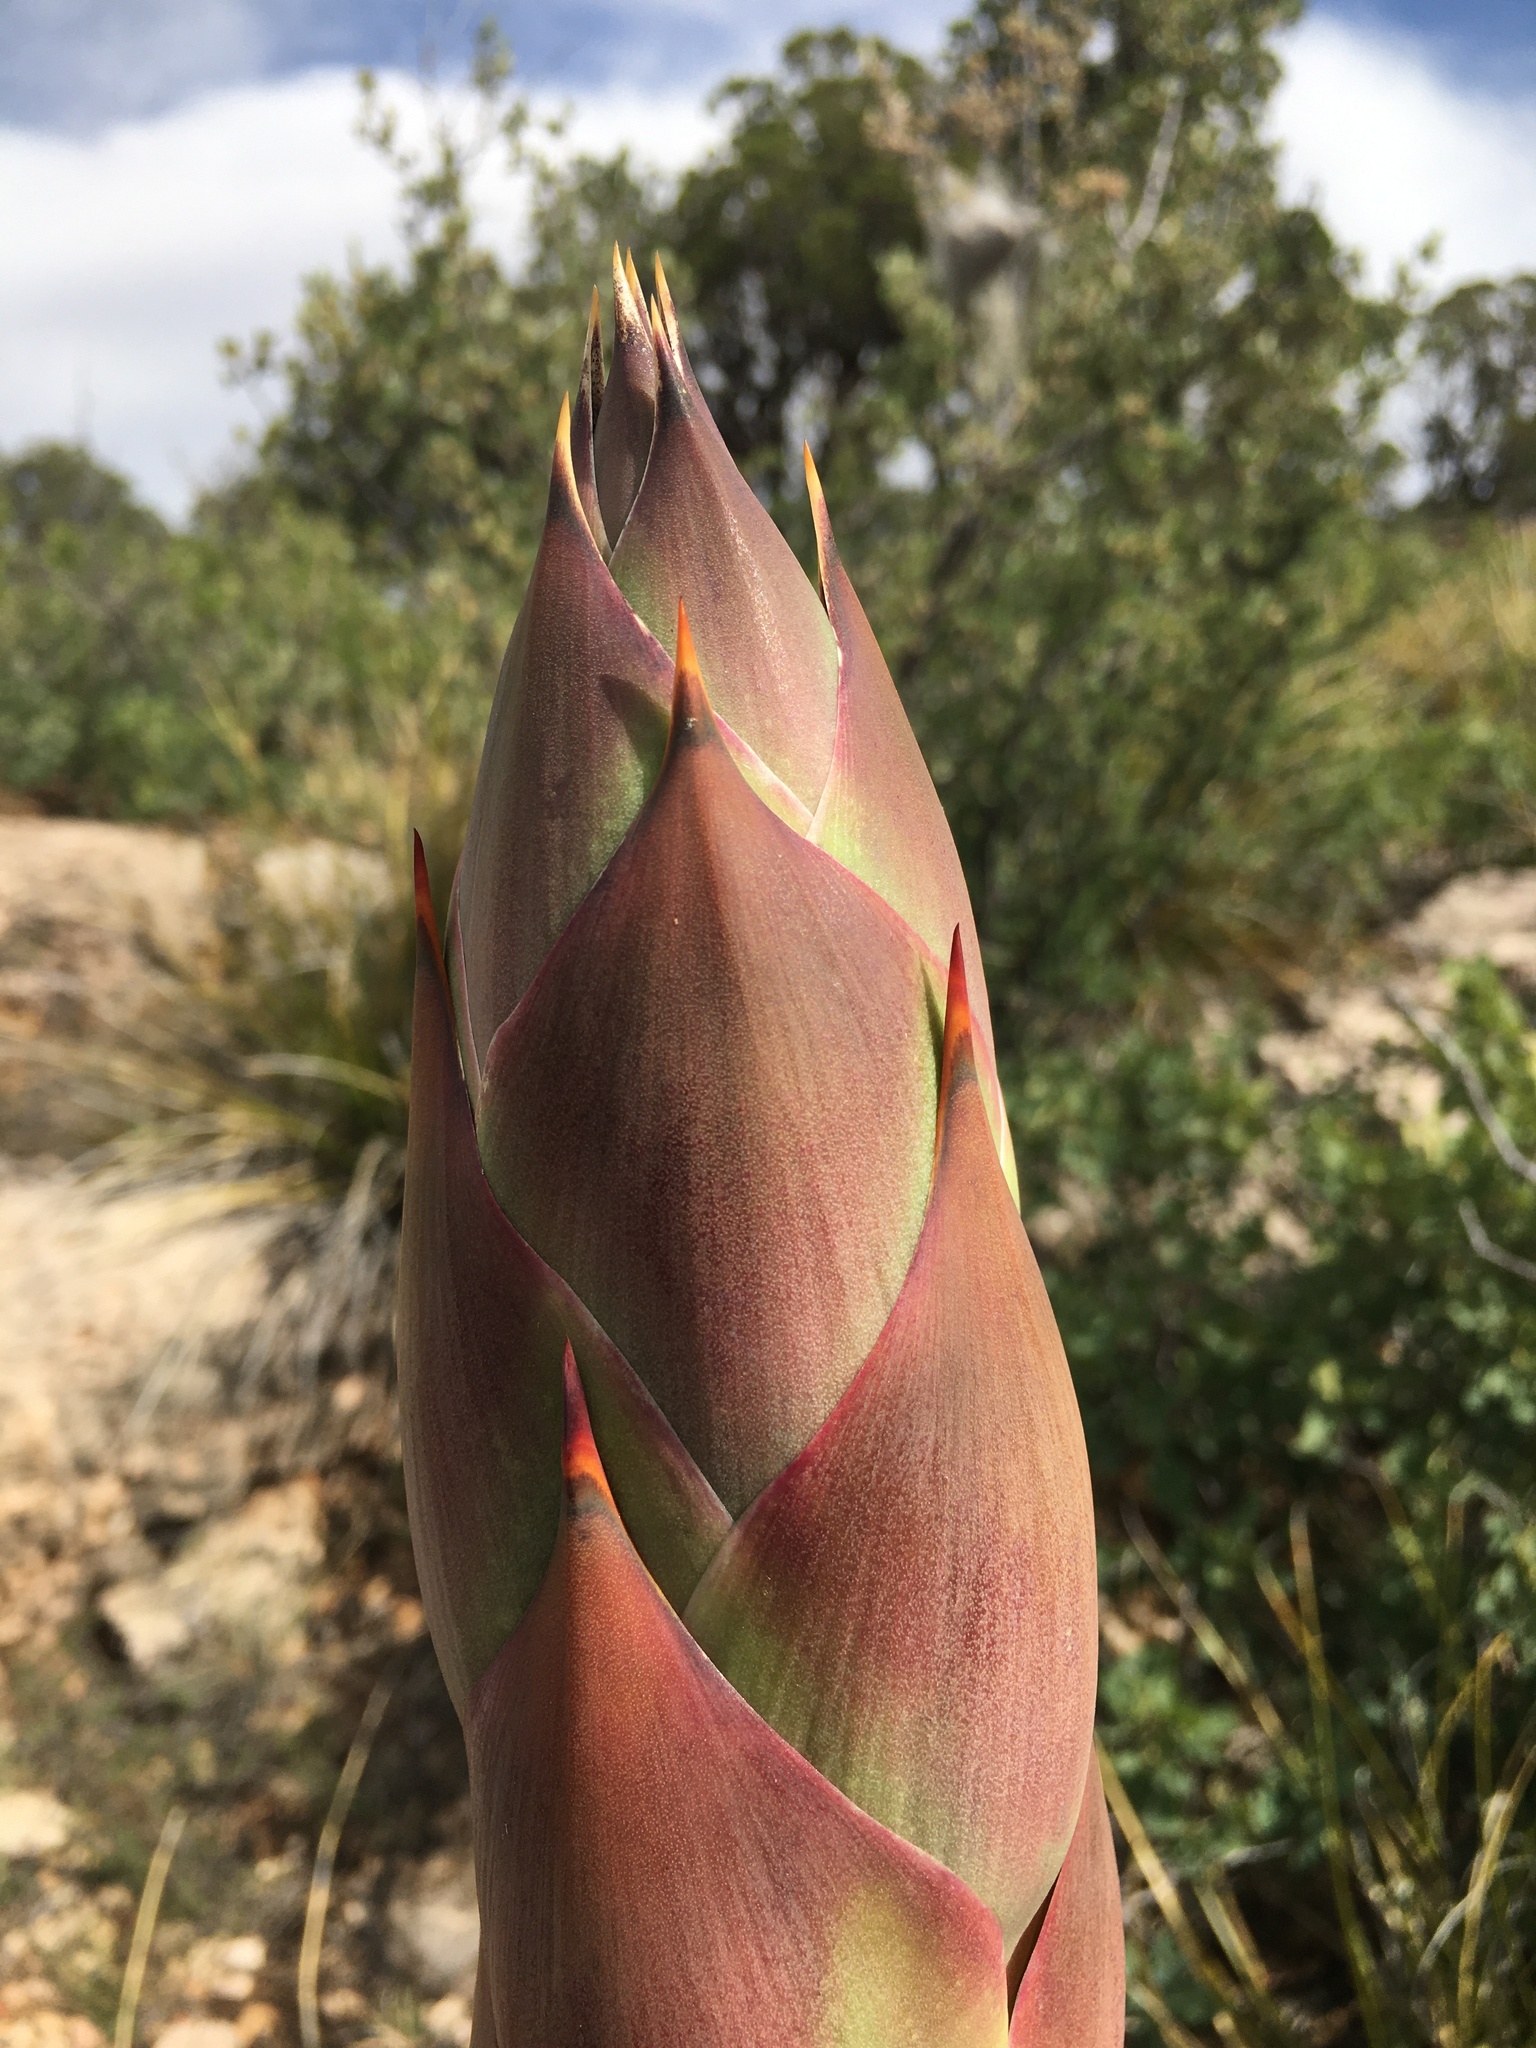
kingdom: Plantae
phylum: Tracheophyta
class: Liliopsida
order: Asparagales
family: Asparagaceae
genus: Agave
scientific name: Agave parryi
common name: Parry's agave
